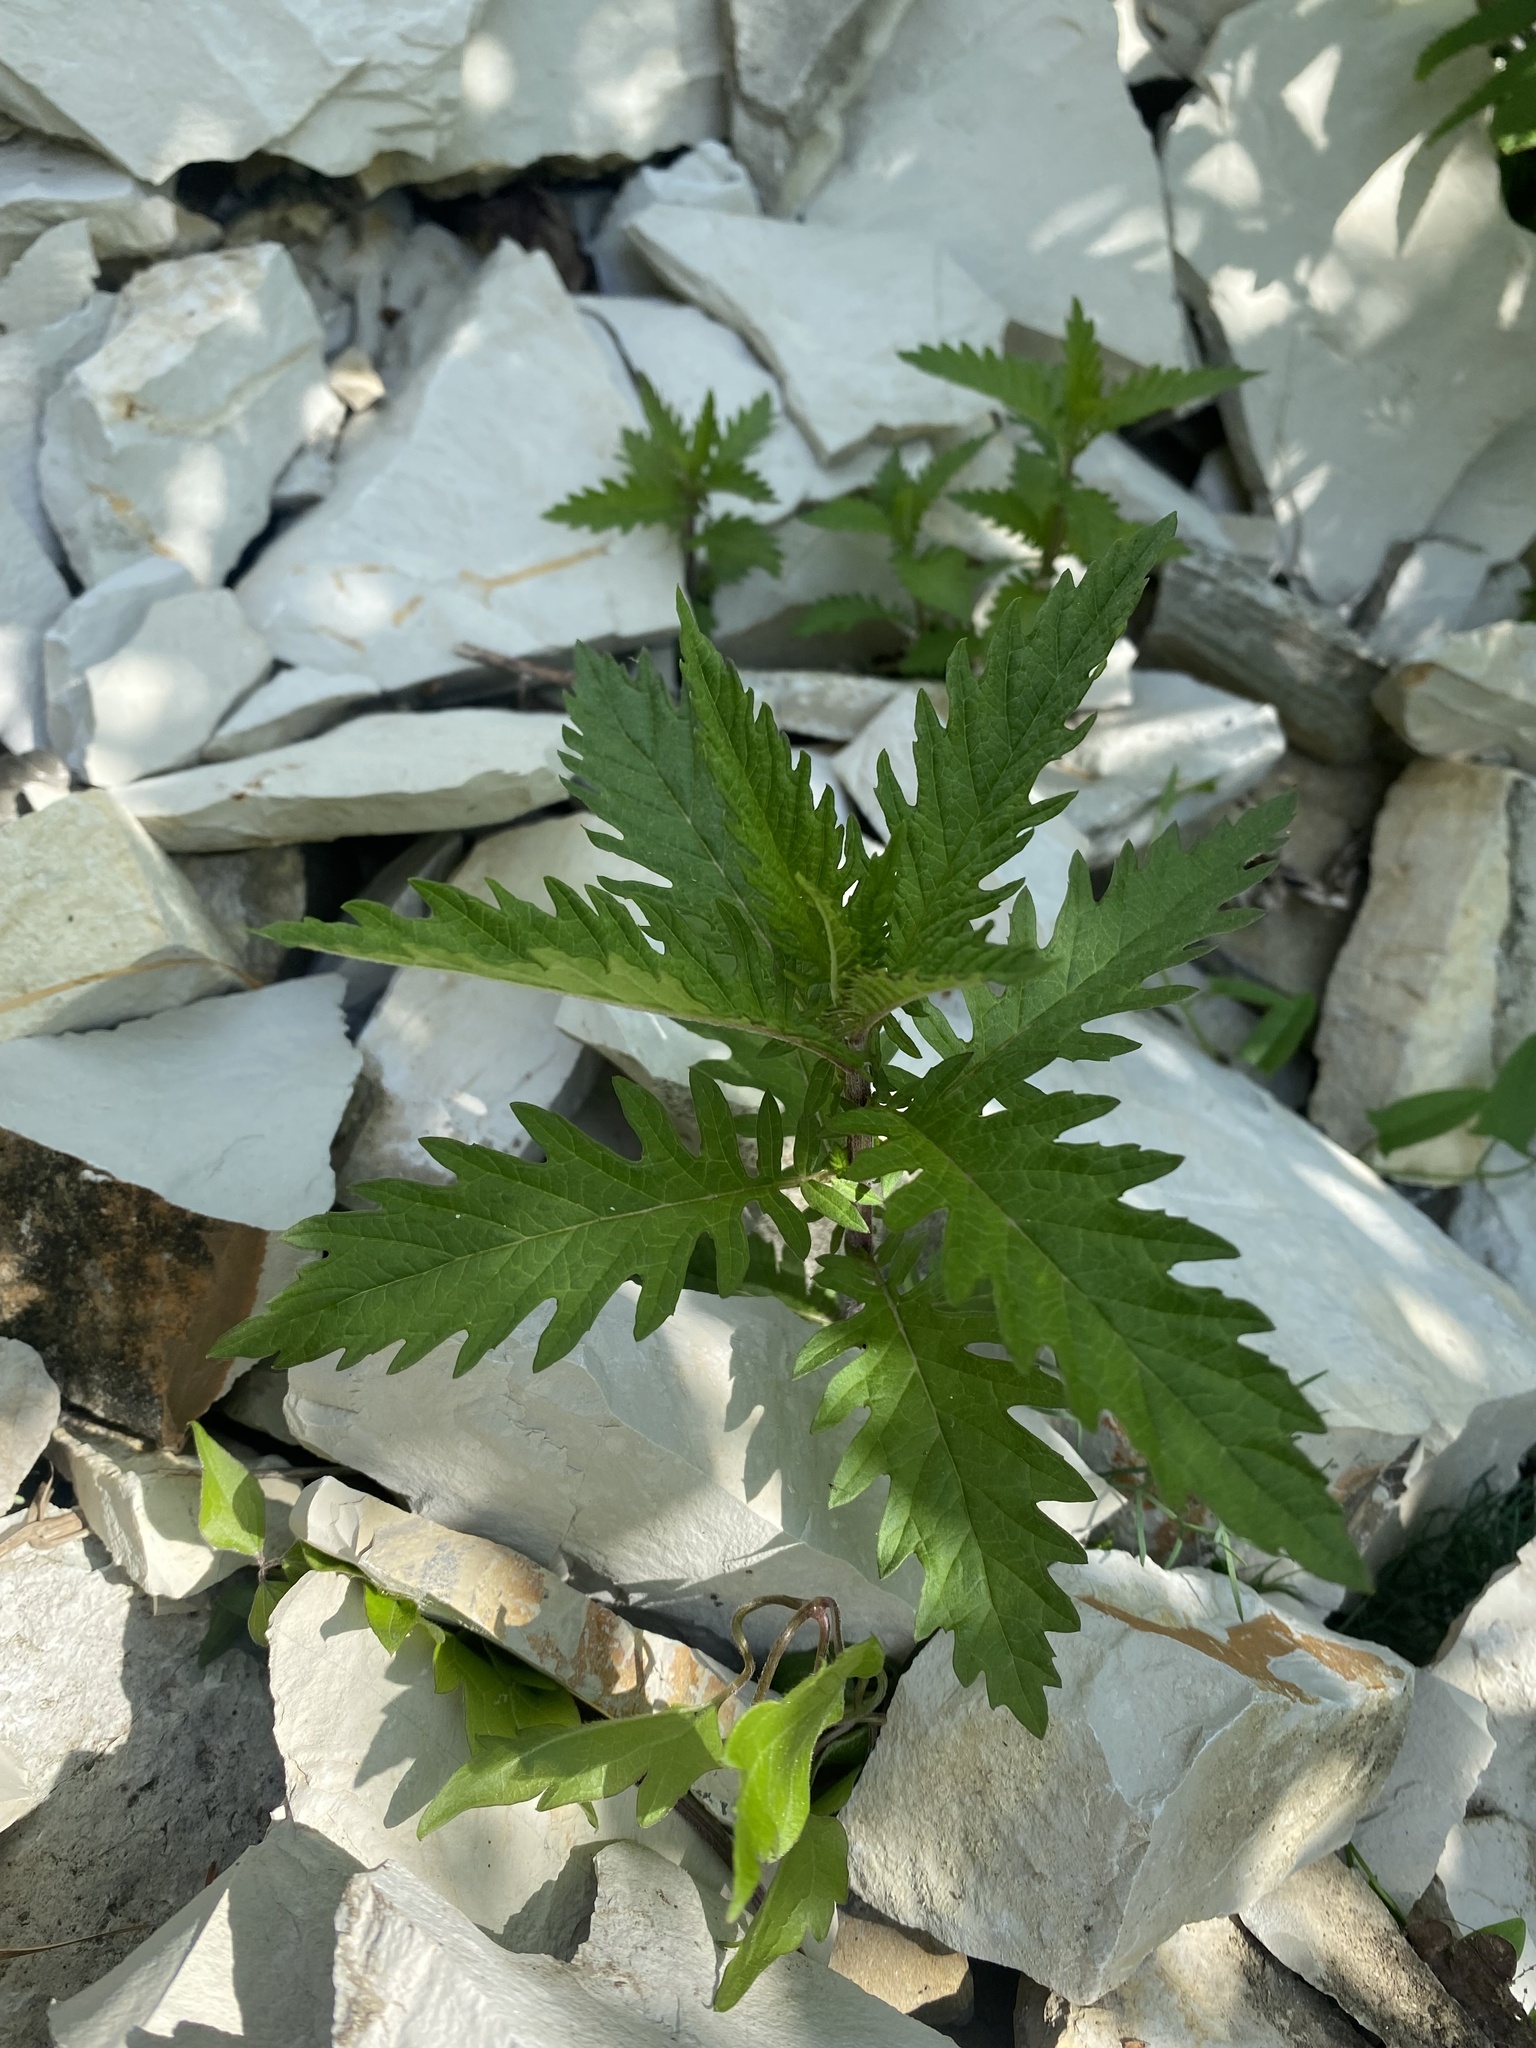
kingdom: Plantae
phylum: Tracheophyta
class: Magnoliopsida
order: Lamiales
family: Lamiaceae
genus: Lycopus
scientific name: Lycopus europaeus
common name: European bugleweed
